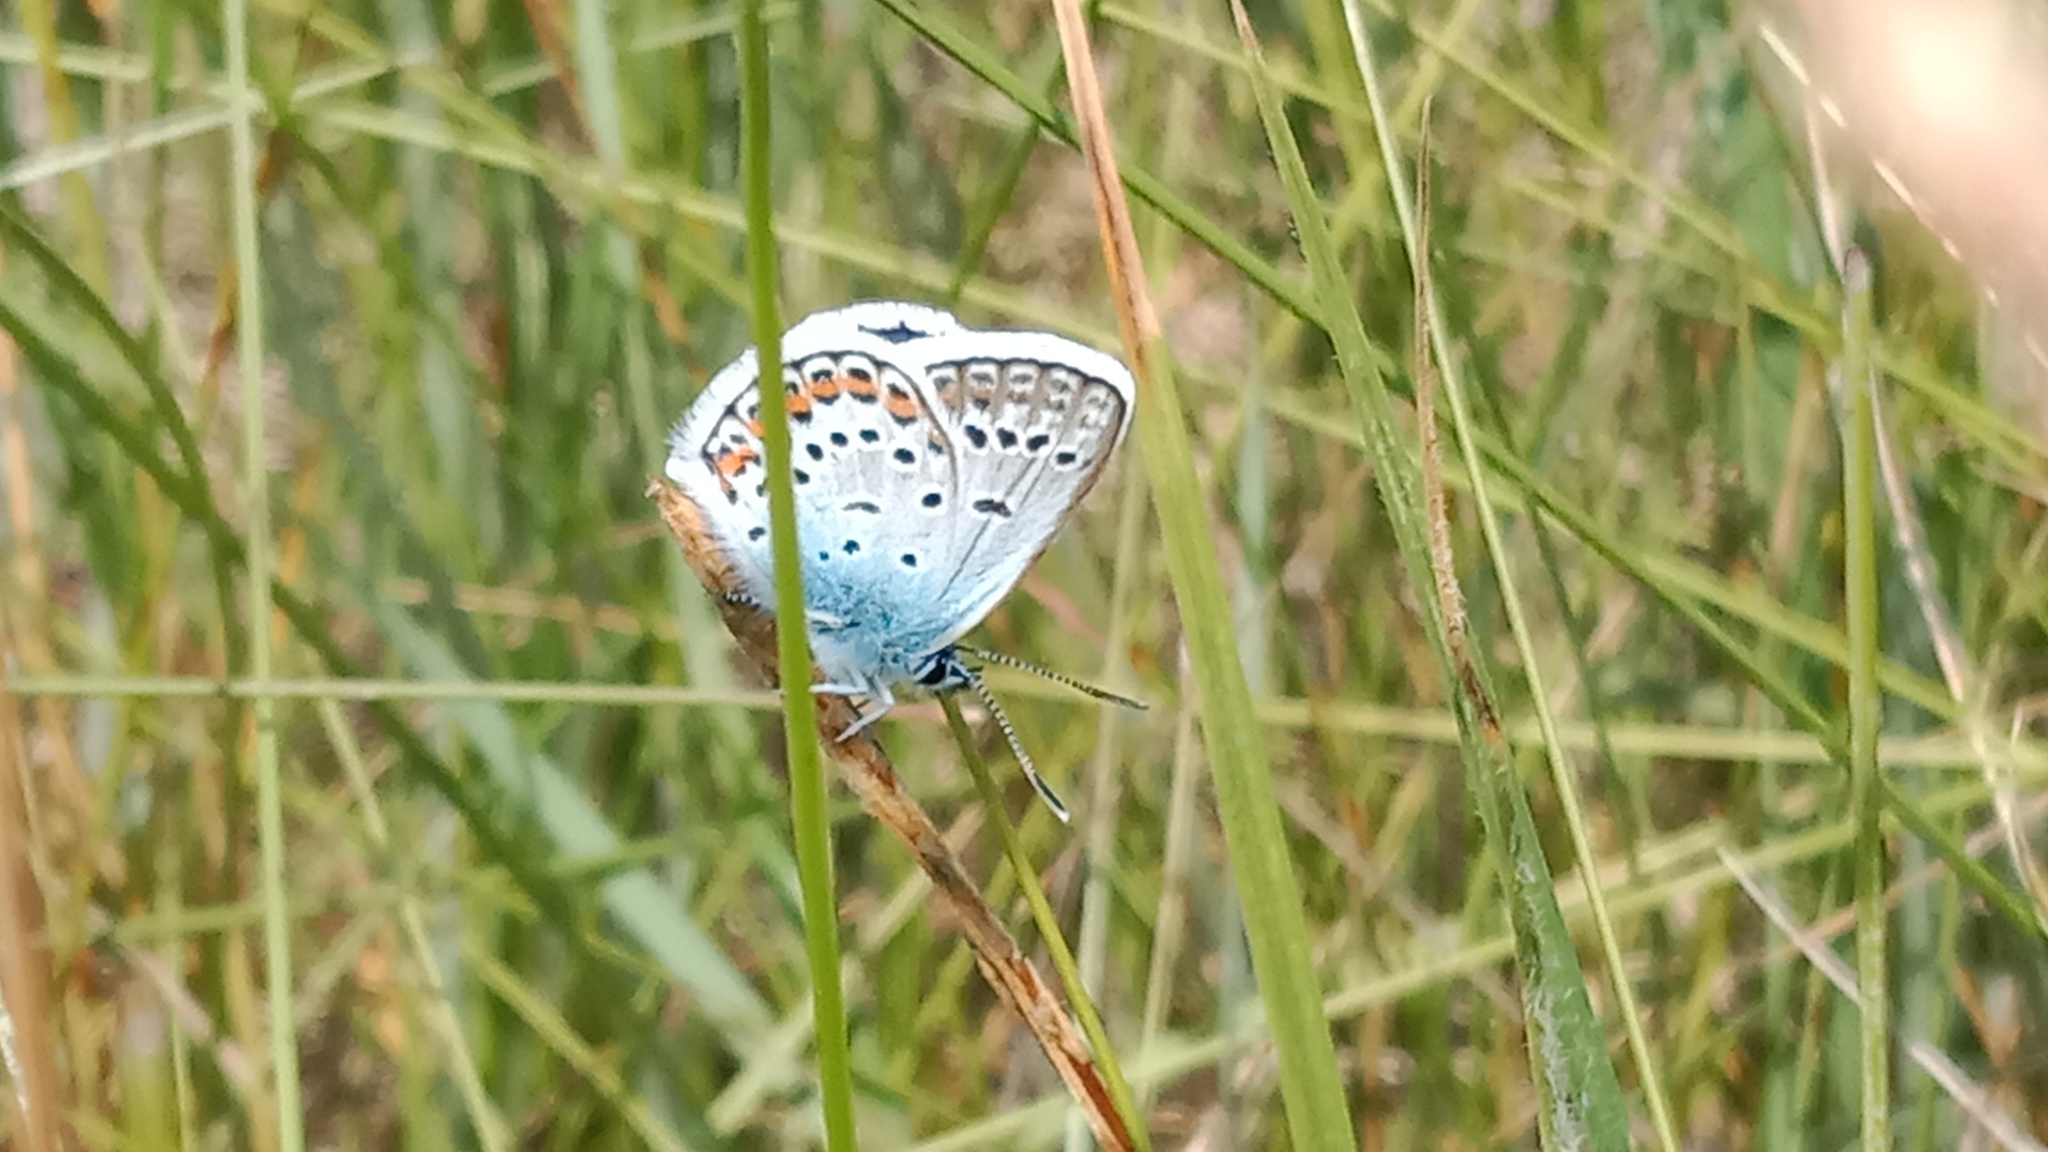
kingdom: Animalia
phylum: Arthropoda
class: Insecta
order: Lepidoptera
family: Lycaenidae
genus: Plebejus
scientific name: Plebejus argus
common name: Silver-studded blue
